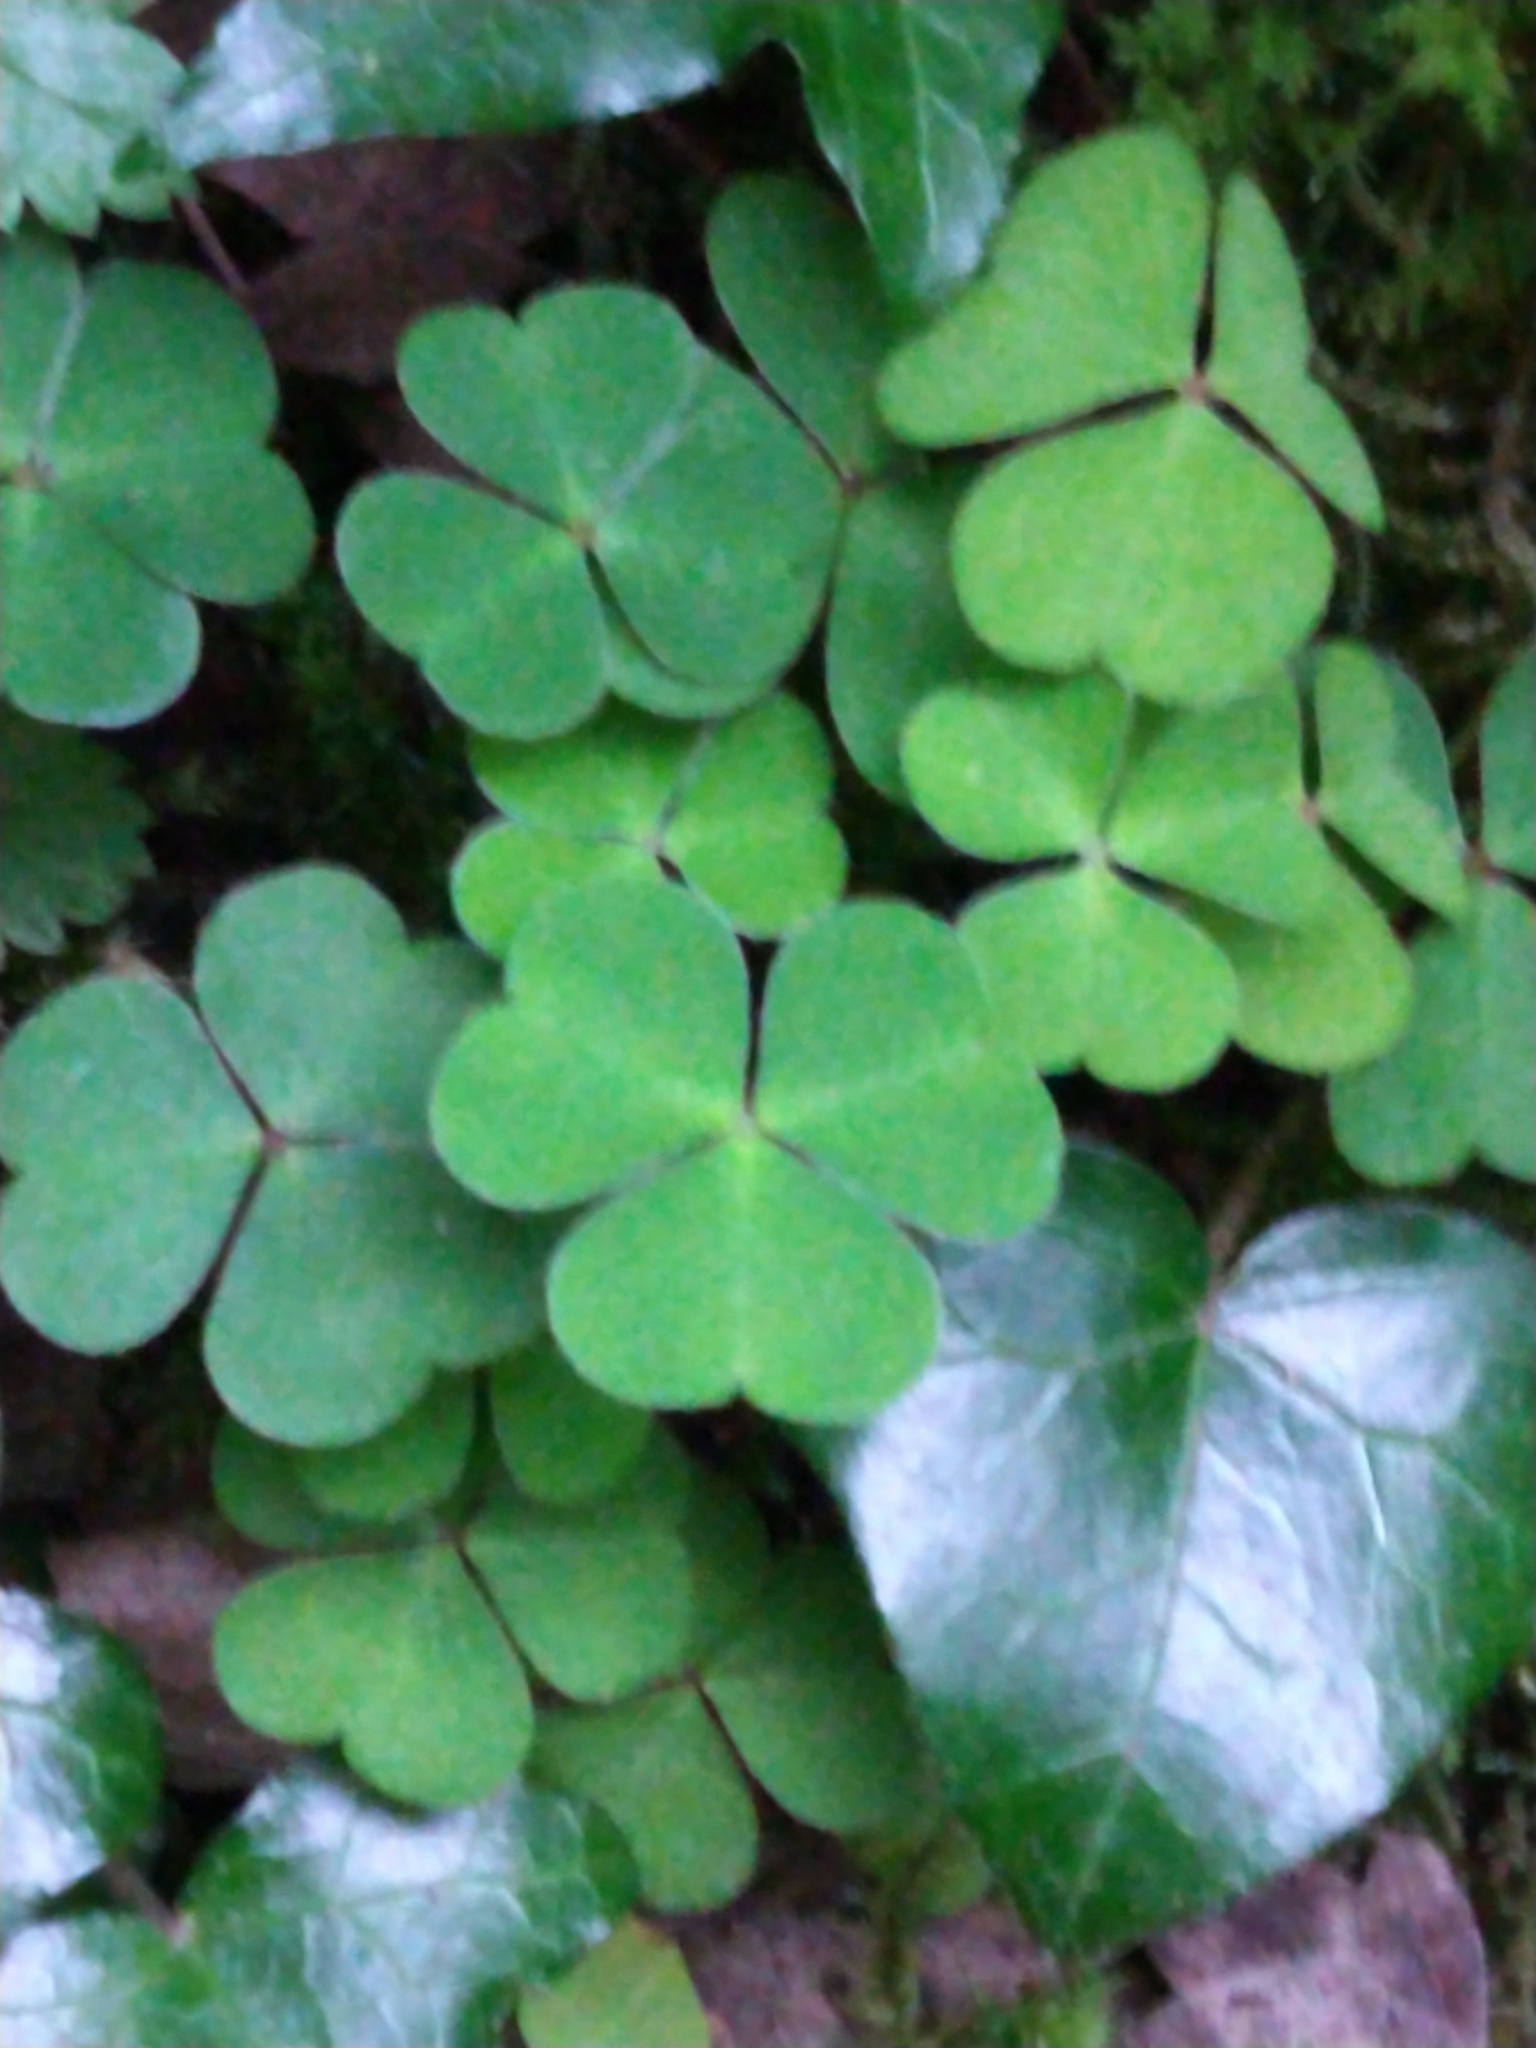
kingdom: Plantae
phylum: Tracheophyta
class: Magnoliopsida
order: Oxalidales
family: Oxalidaceae
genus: Oxalis
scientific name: Oxalis acetosella
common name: Wood-sorrel
